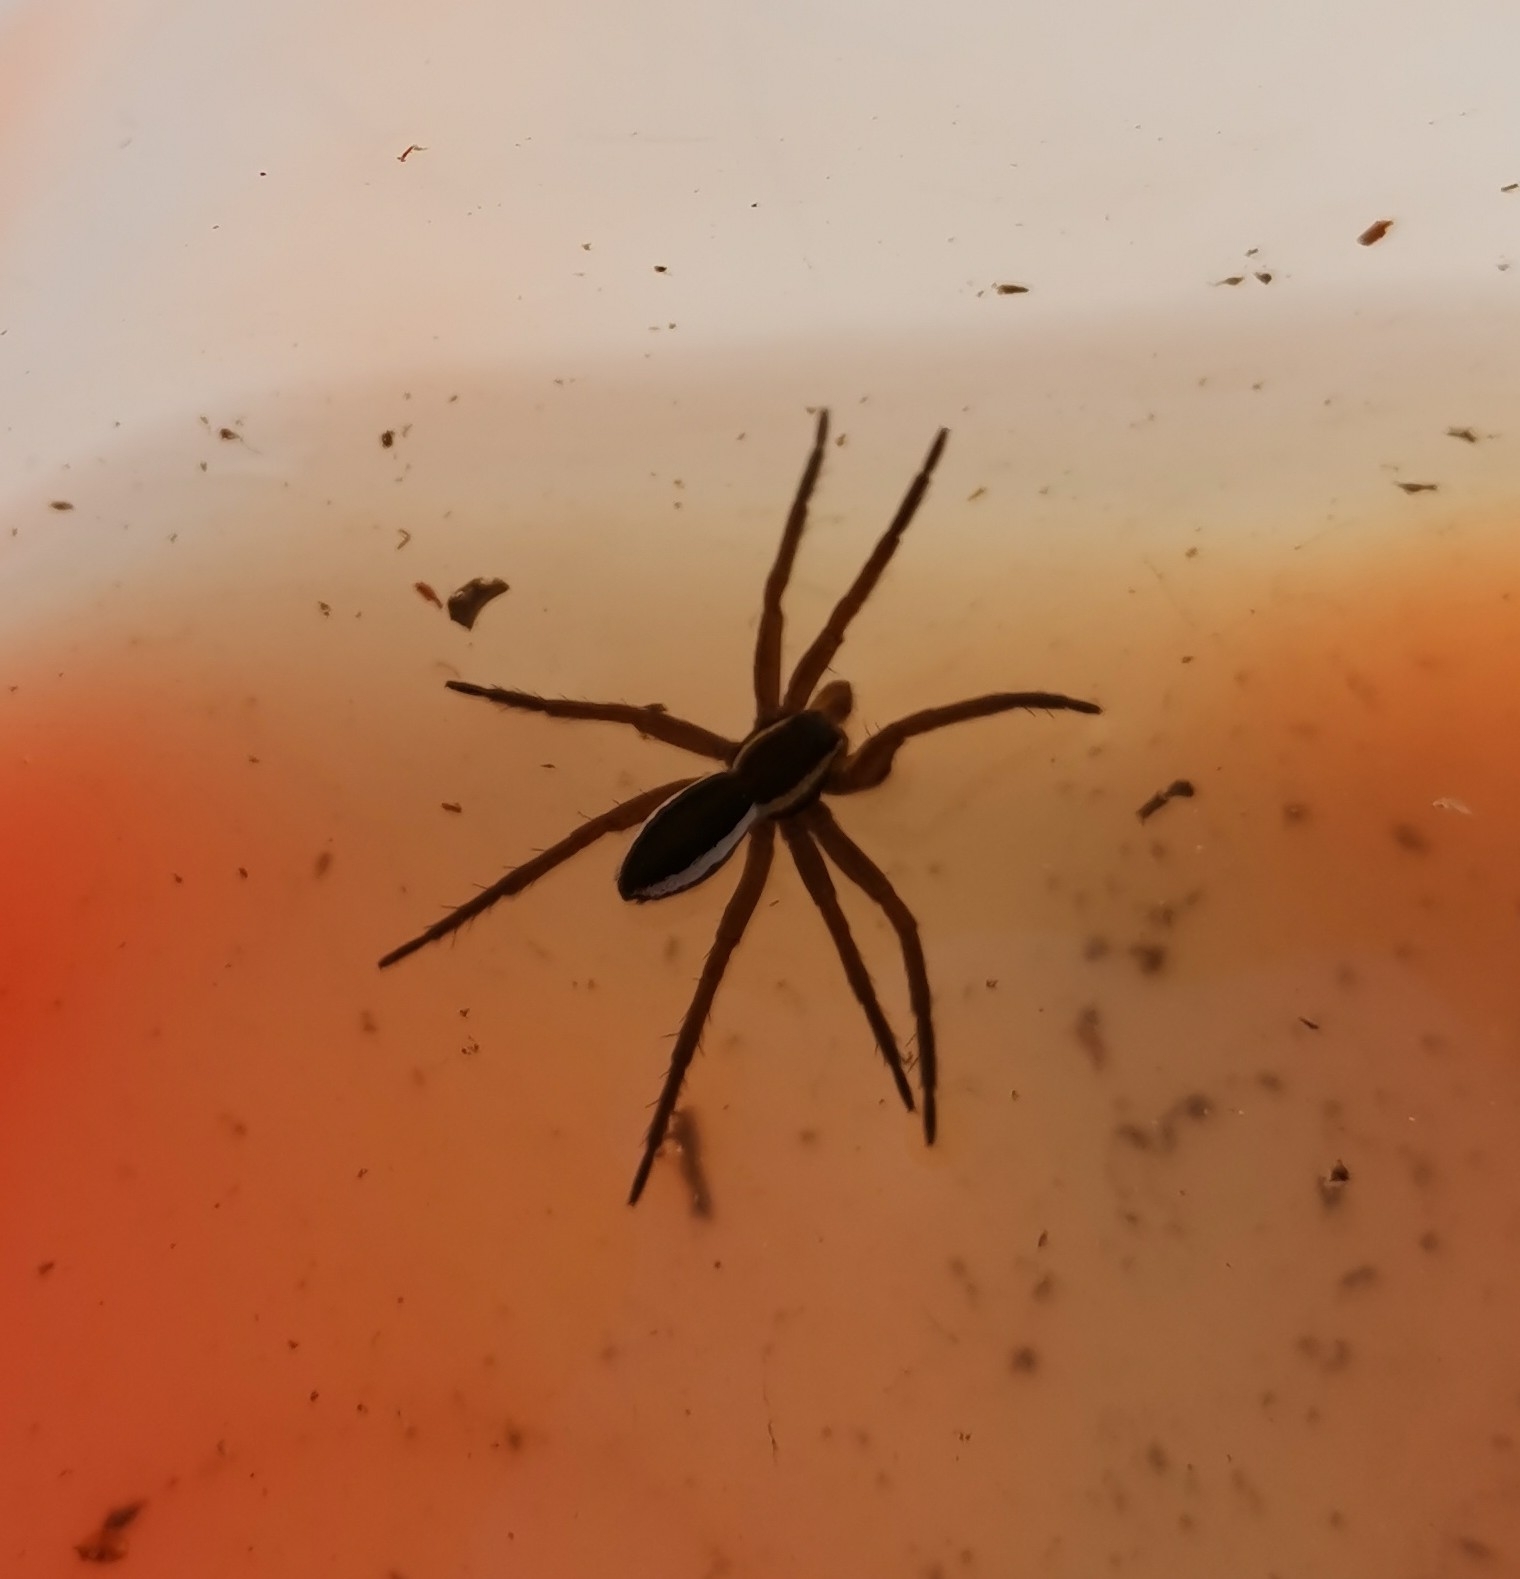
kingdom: Animalia
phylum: Arthropoda
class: Arachnida
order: Araneae
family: Pisauridae
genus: Dolomedes
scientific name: Dolomedes fimbriatus
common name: Raft spider
